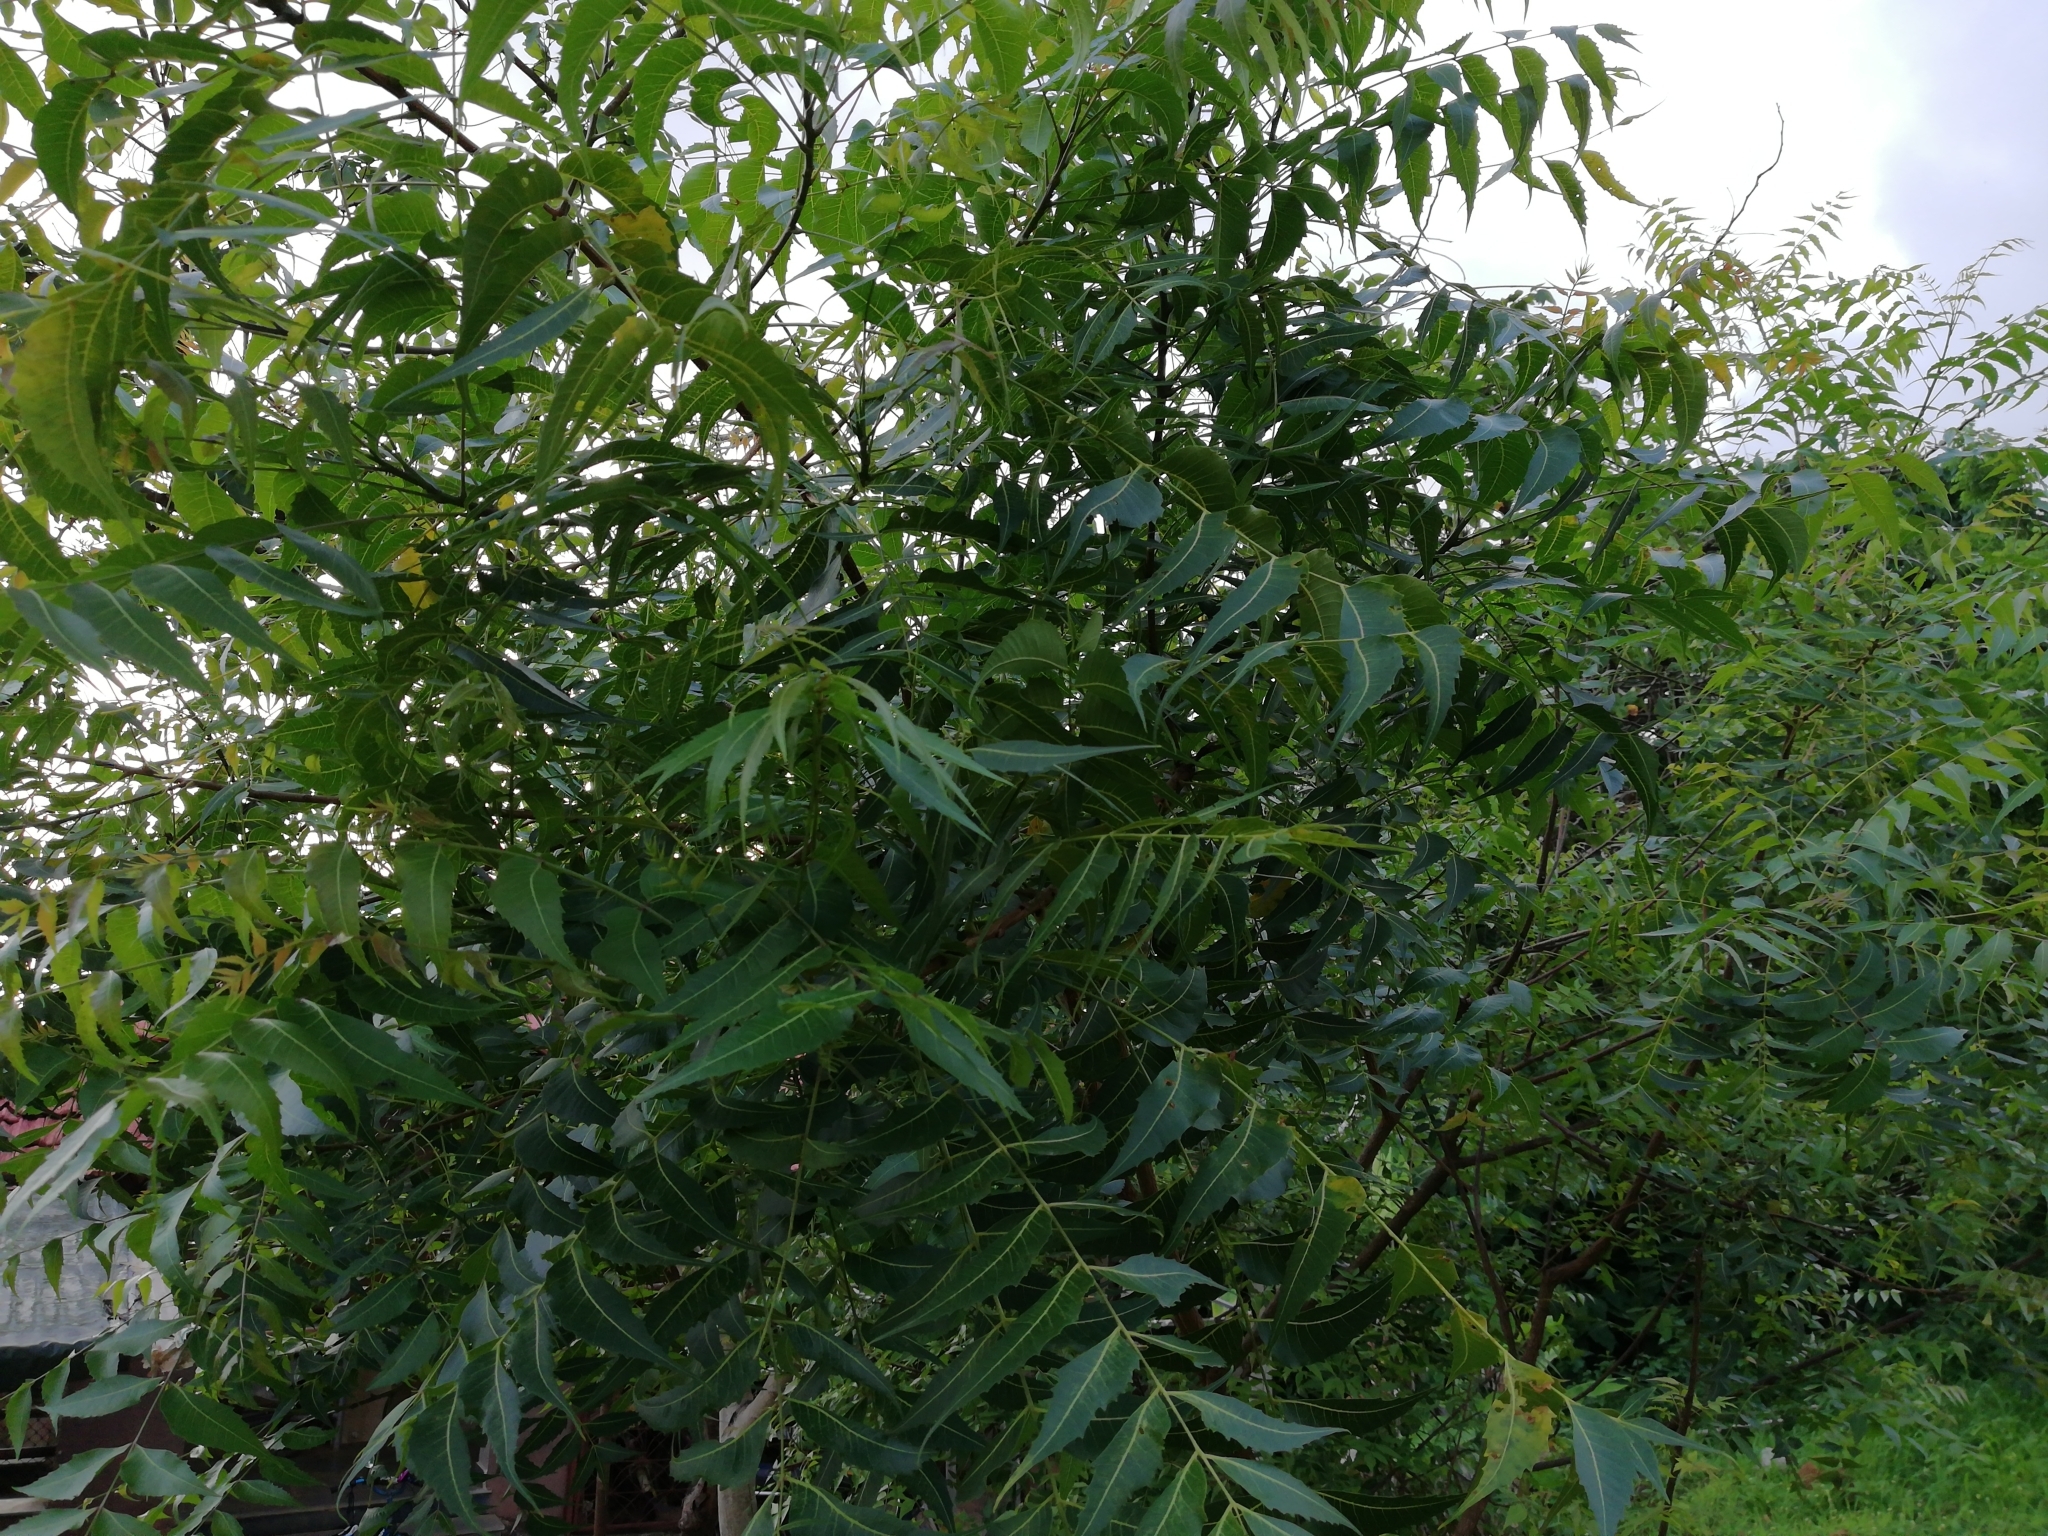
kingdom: Plantae
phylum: Tracheophyta
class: Magnoliopsida
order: Sapindales
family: Meliaceae
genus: Azadirachta
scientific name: Azadirachta indica
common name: Neem
